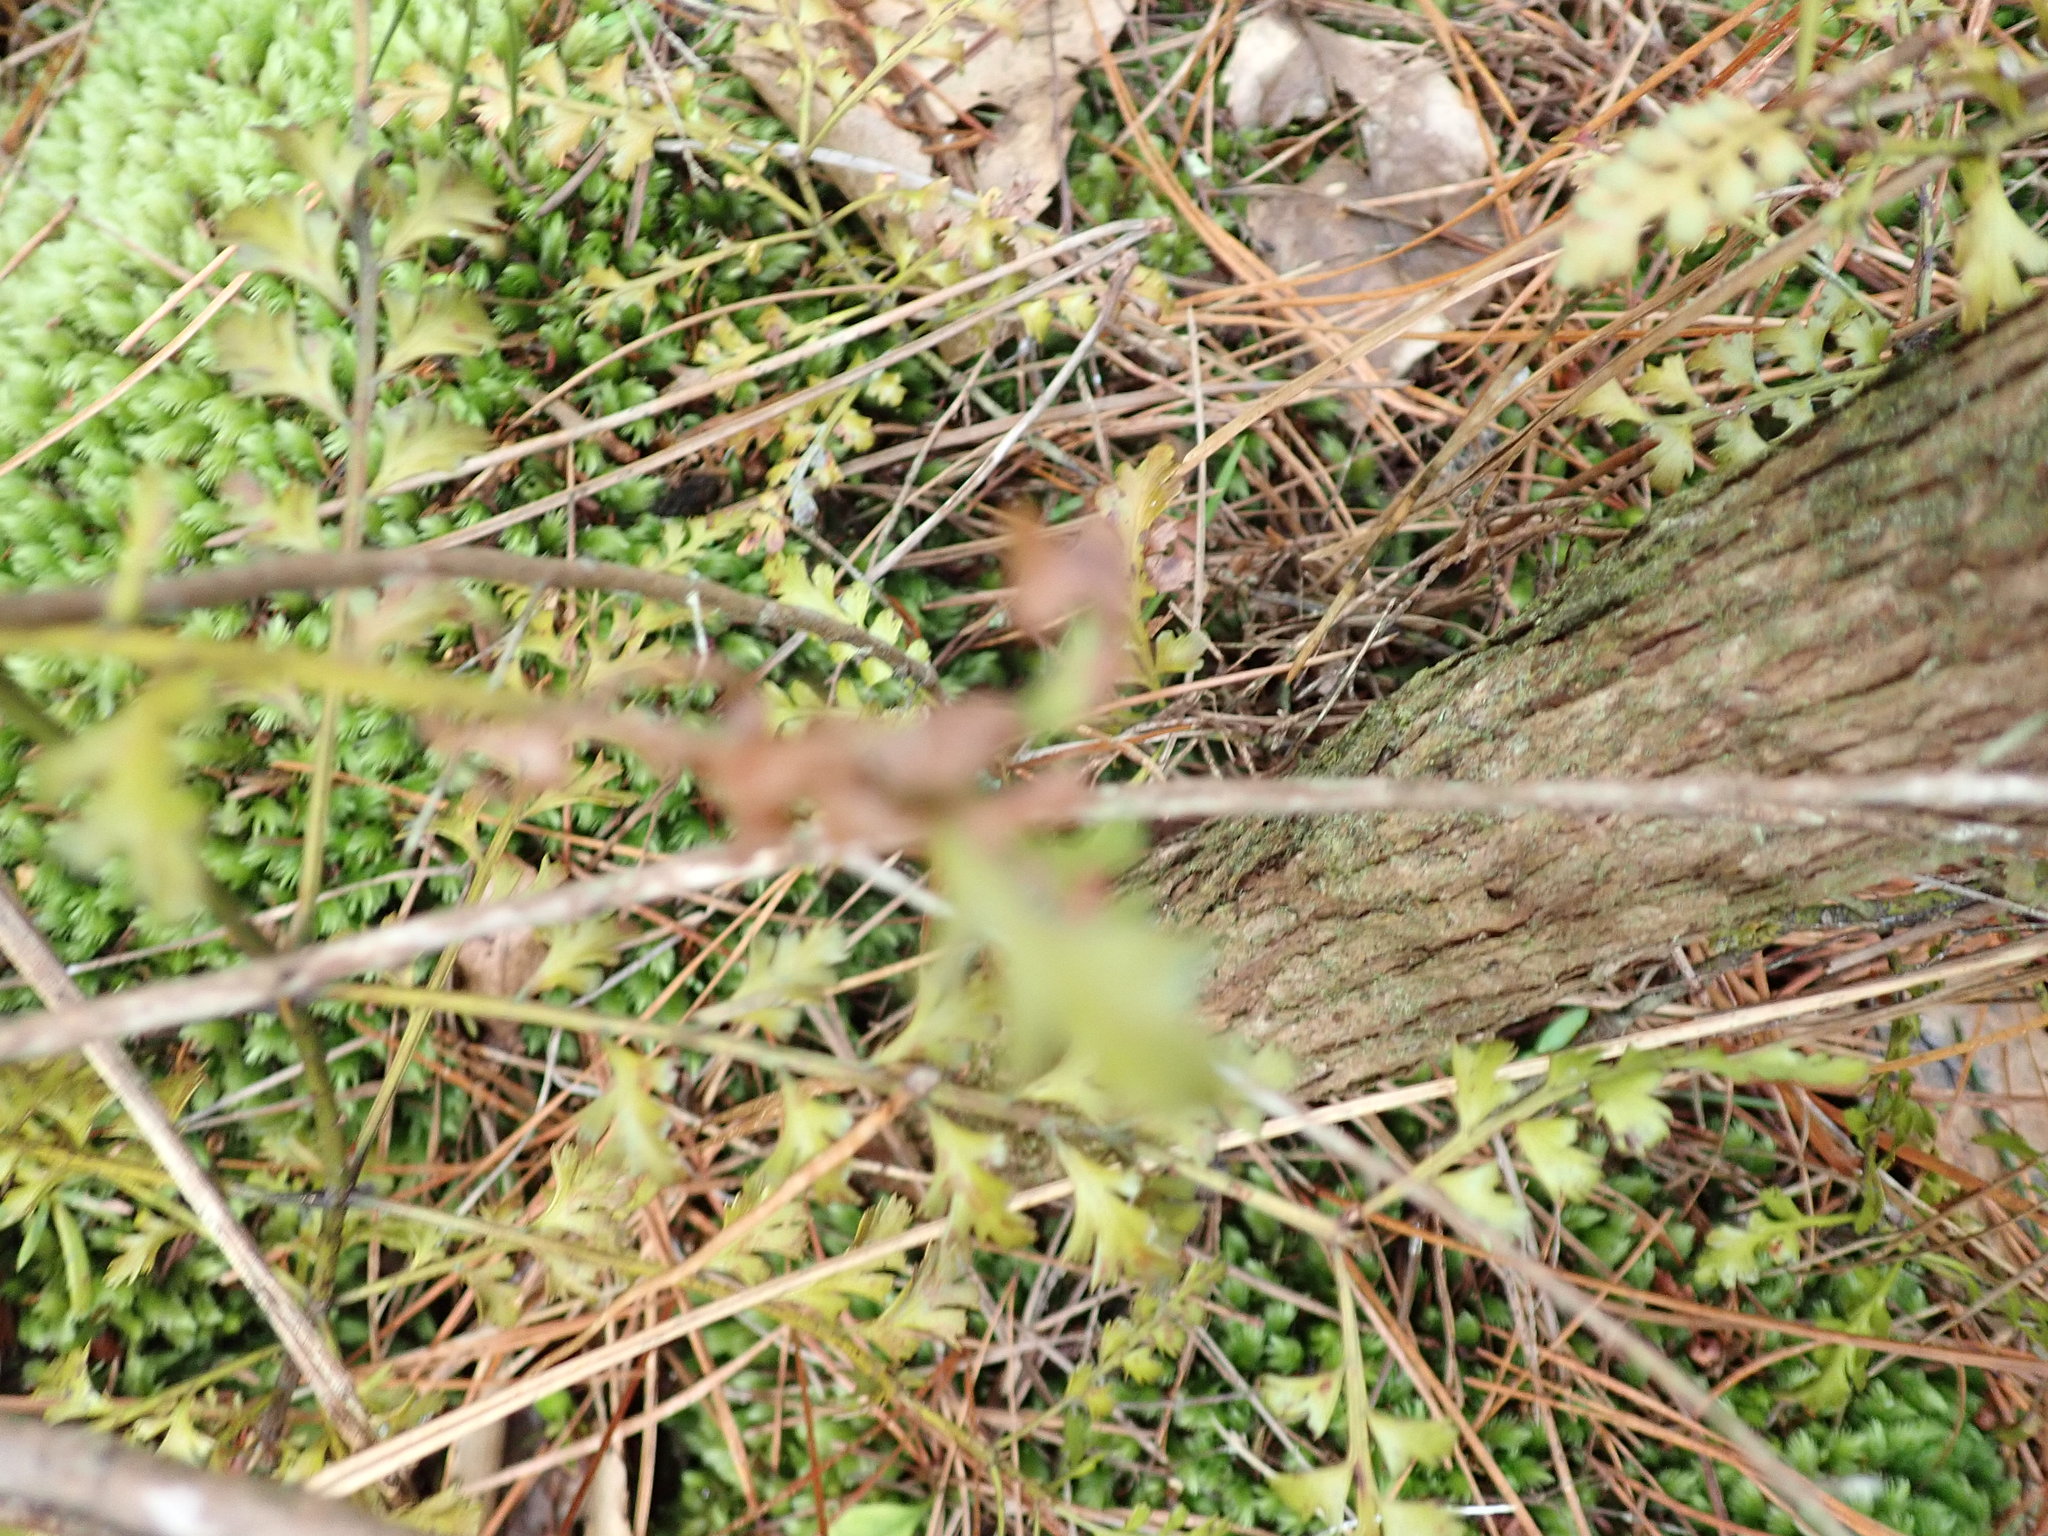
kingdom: Plantae
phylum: Tracheophyta
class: Pinopsida
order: Pinales
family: Phyllocladaceae
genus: Phyllocladus
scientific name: Phyllocladus trichomanoides
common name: Celery pine
